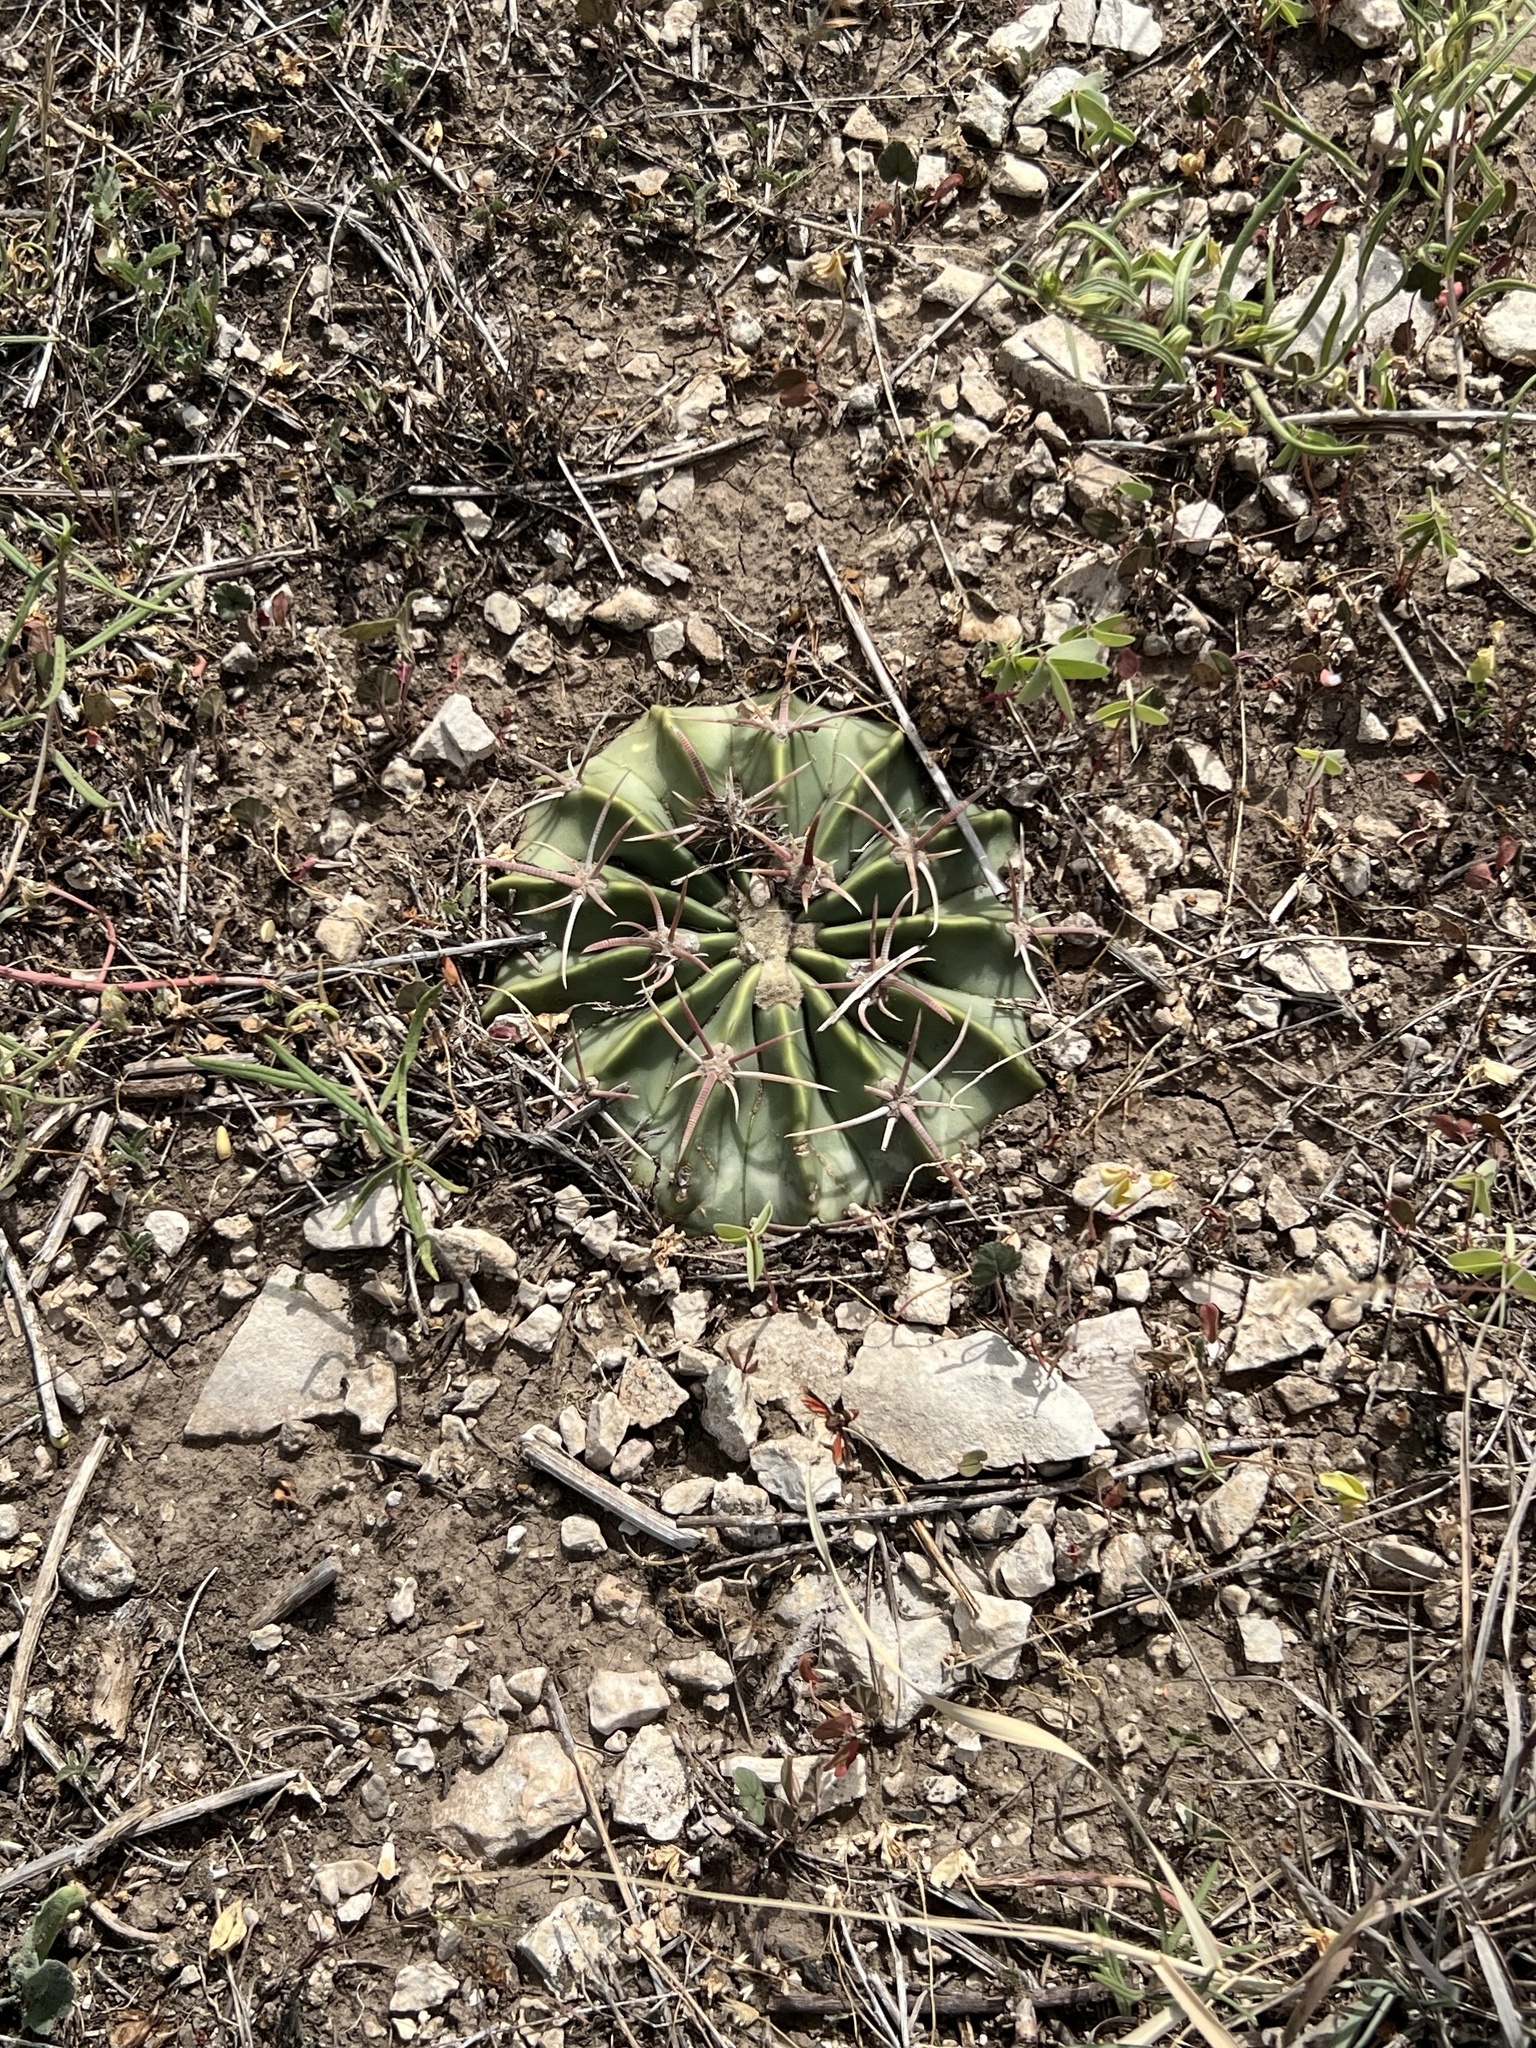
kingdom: Plantae
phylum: Tracheophyta
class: Magnoliopsida
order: Caryophyllales
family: Cactaceae
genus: Echinocactus
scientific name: Echinocactus texensis
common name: Devil's pincushion
